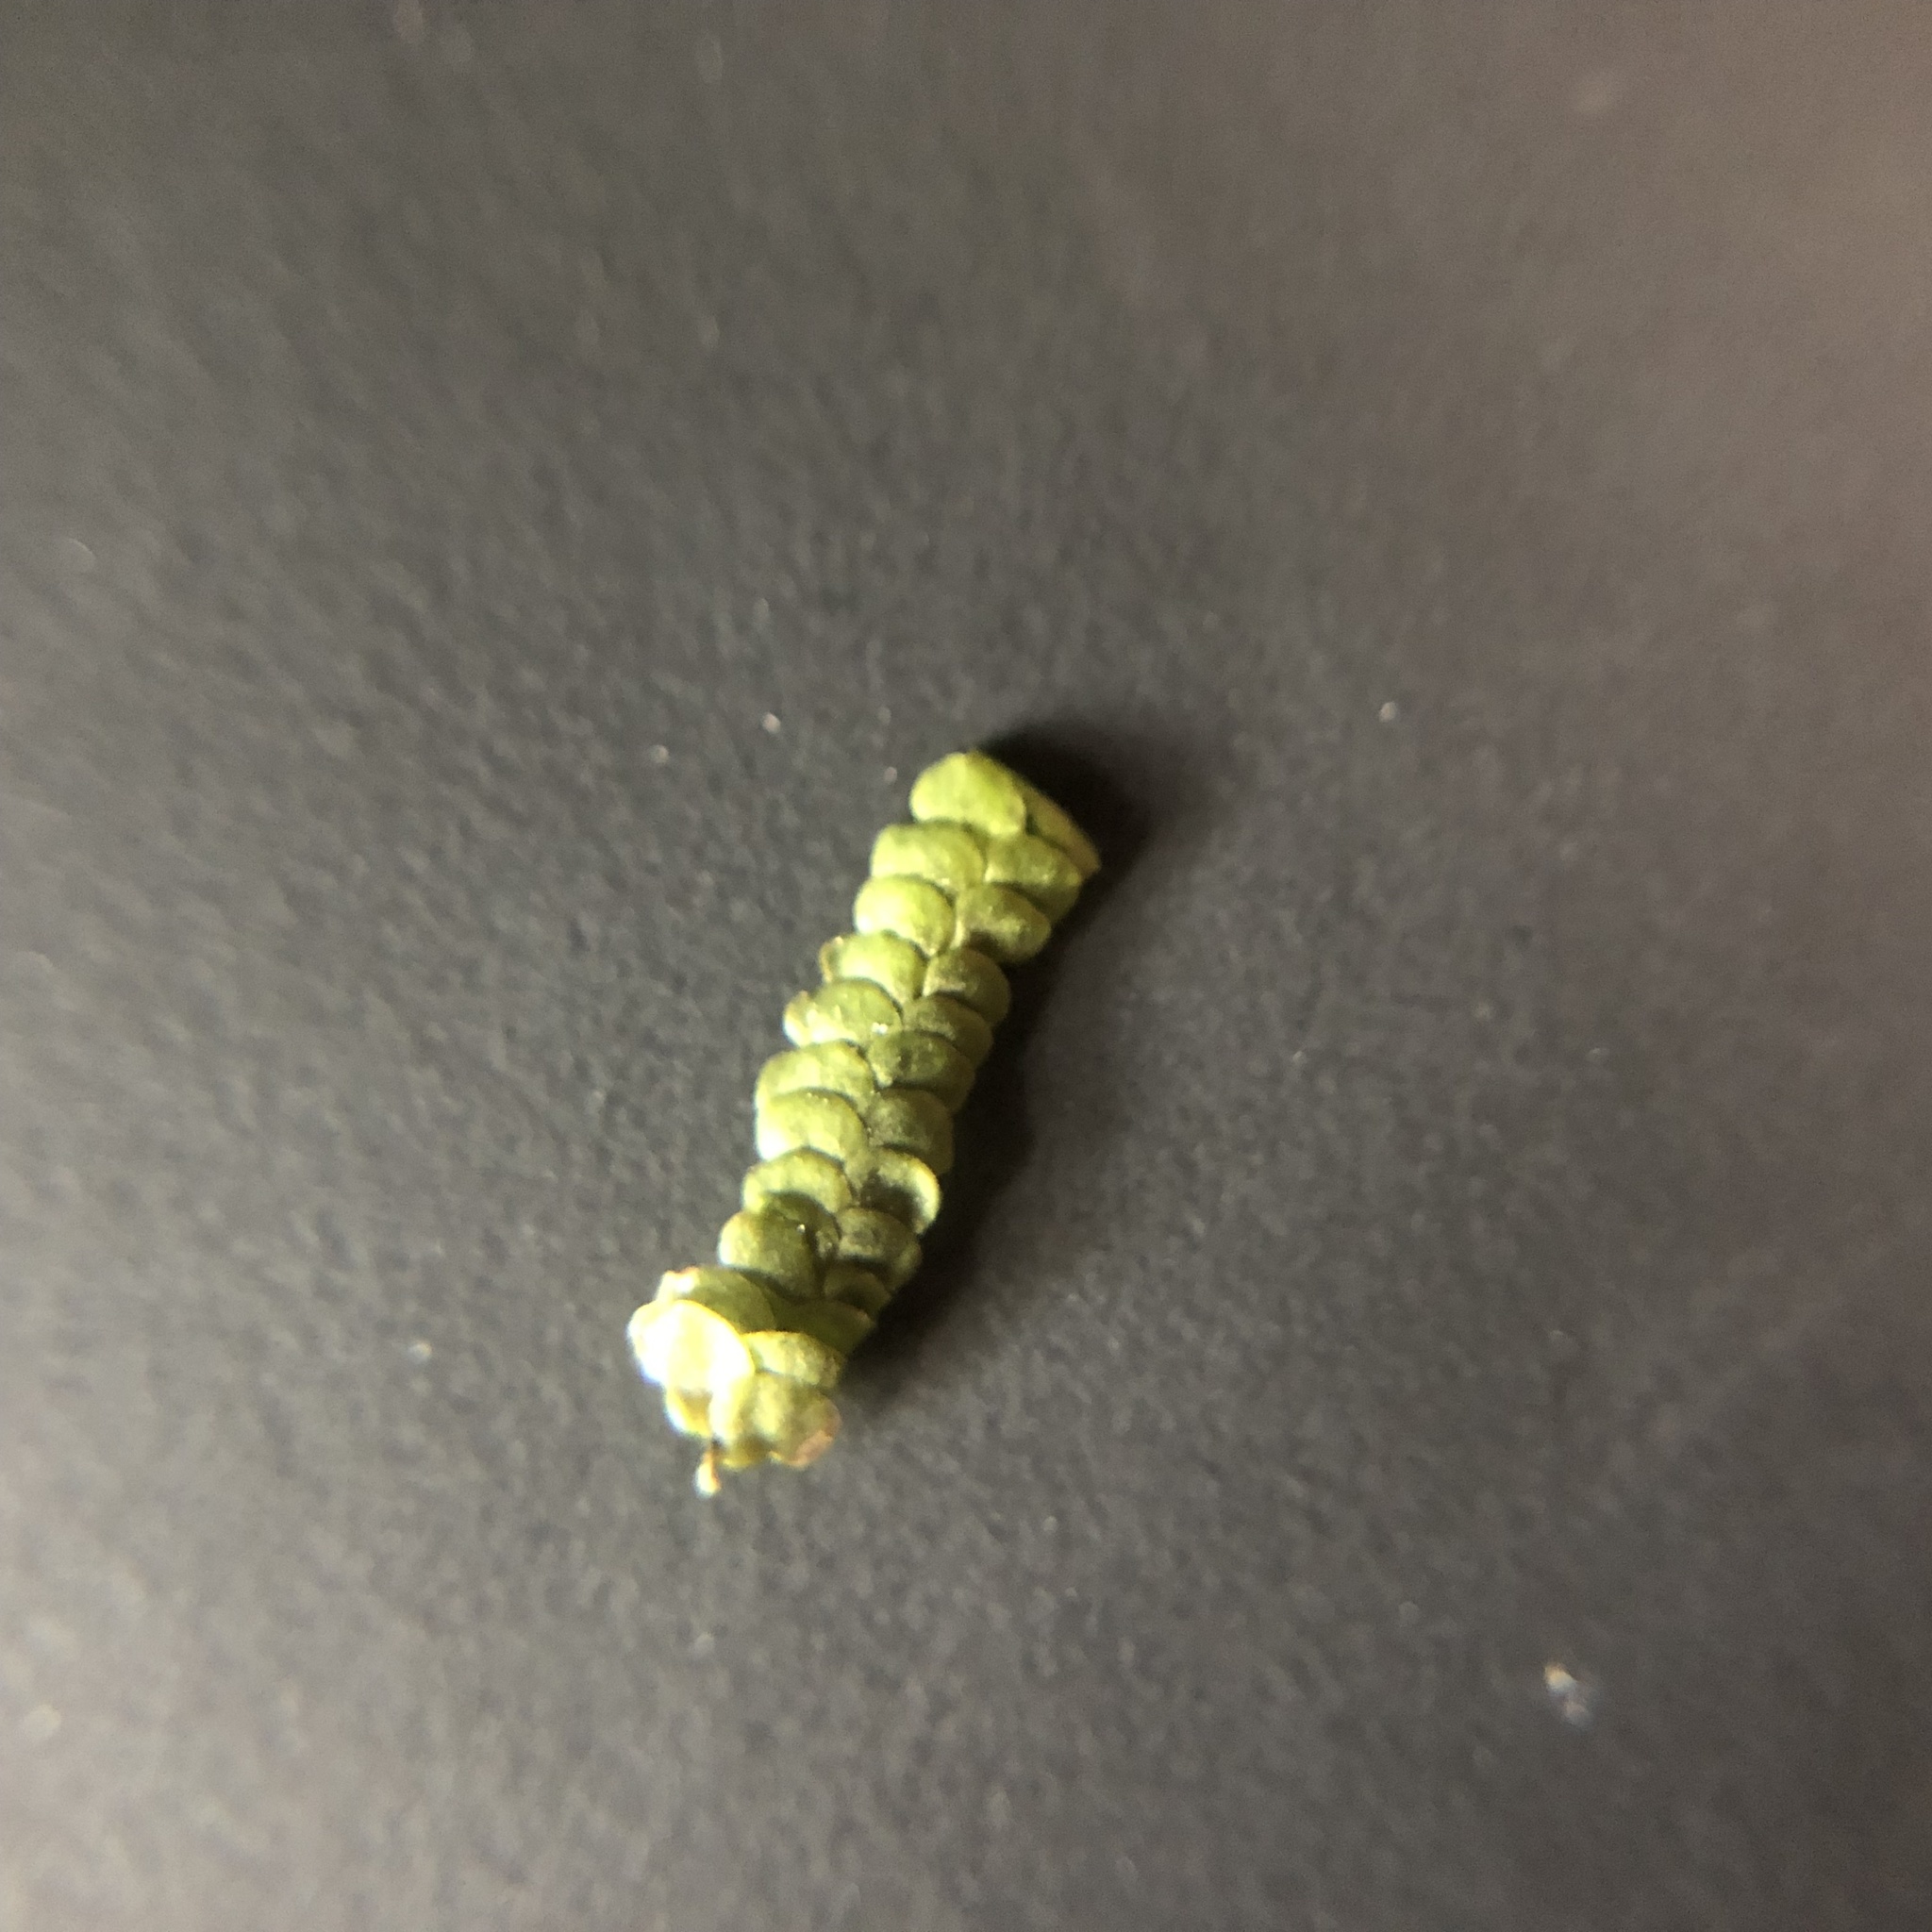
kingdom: Plantae
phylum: Marchantiophyta
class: Jungermanniopsida
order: Porellales
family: Lejeuneaceae
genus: Spruceanthus
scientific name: Spruceanthus olivaceus
